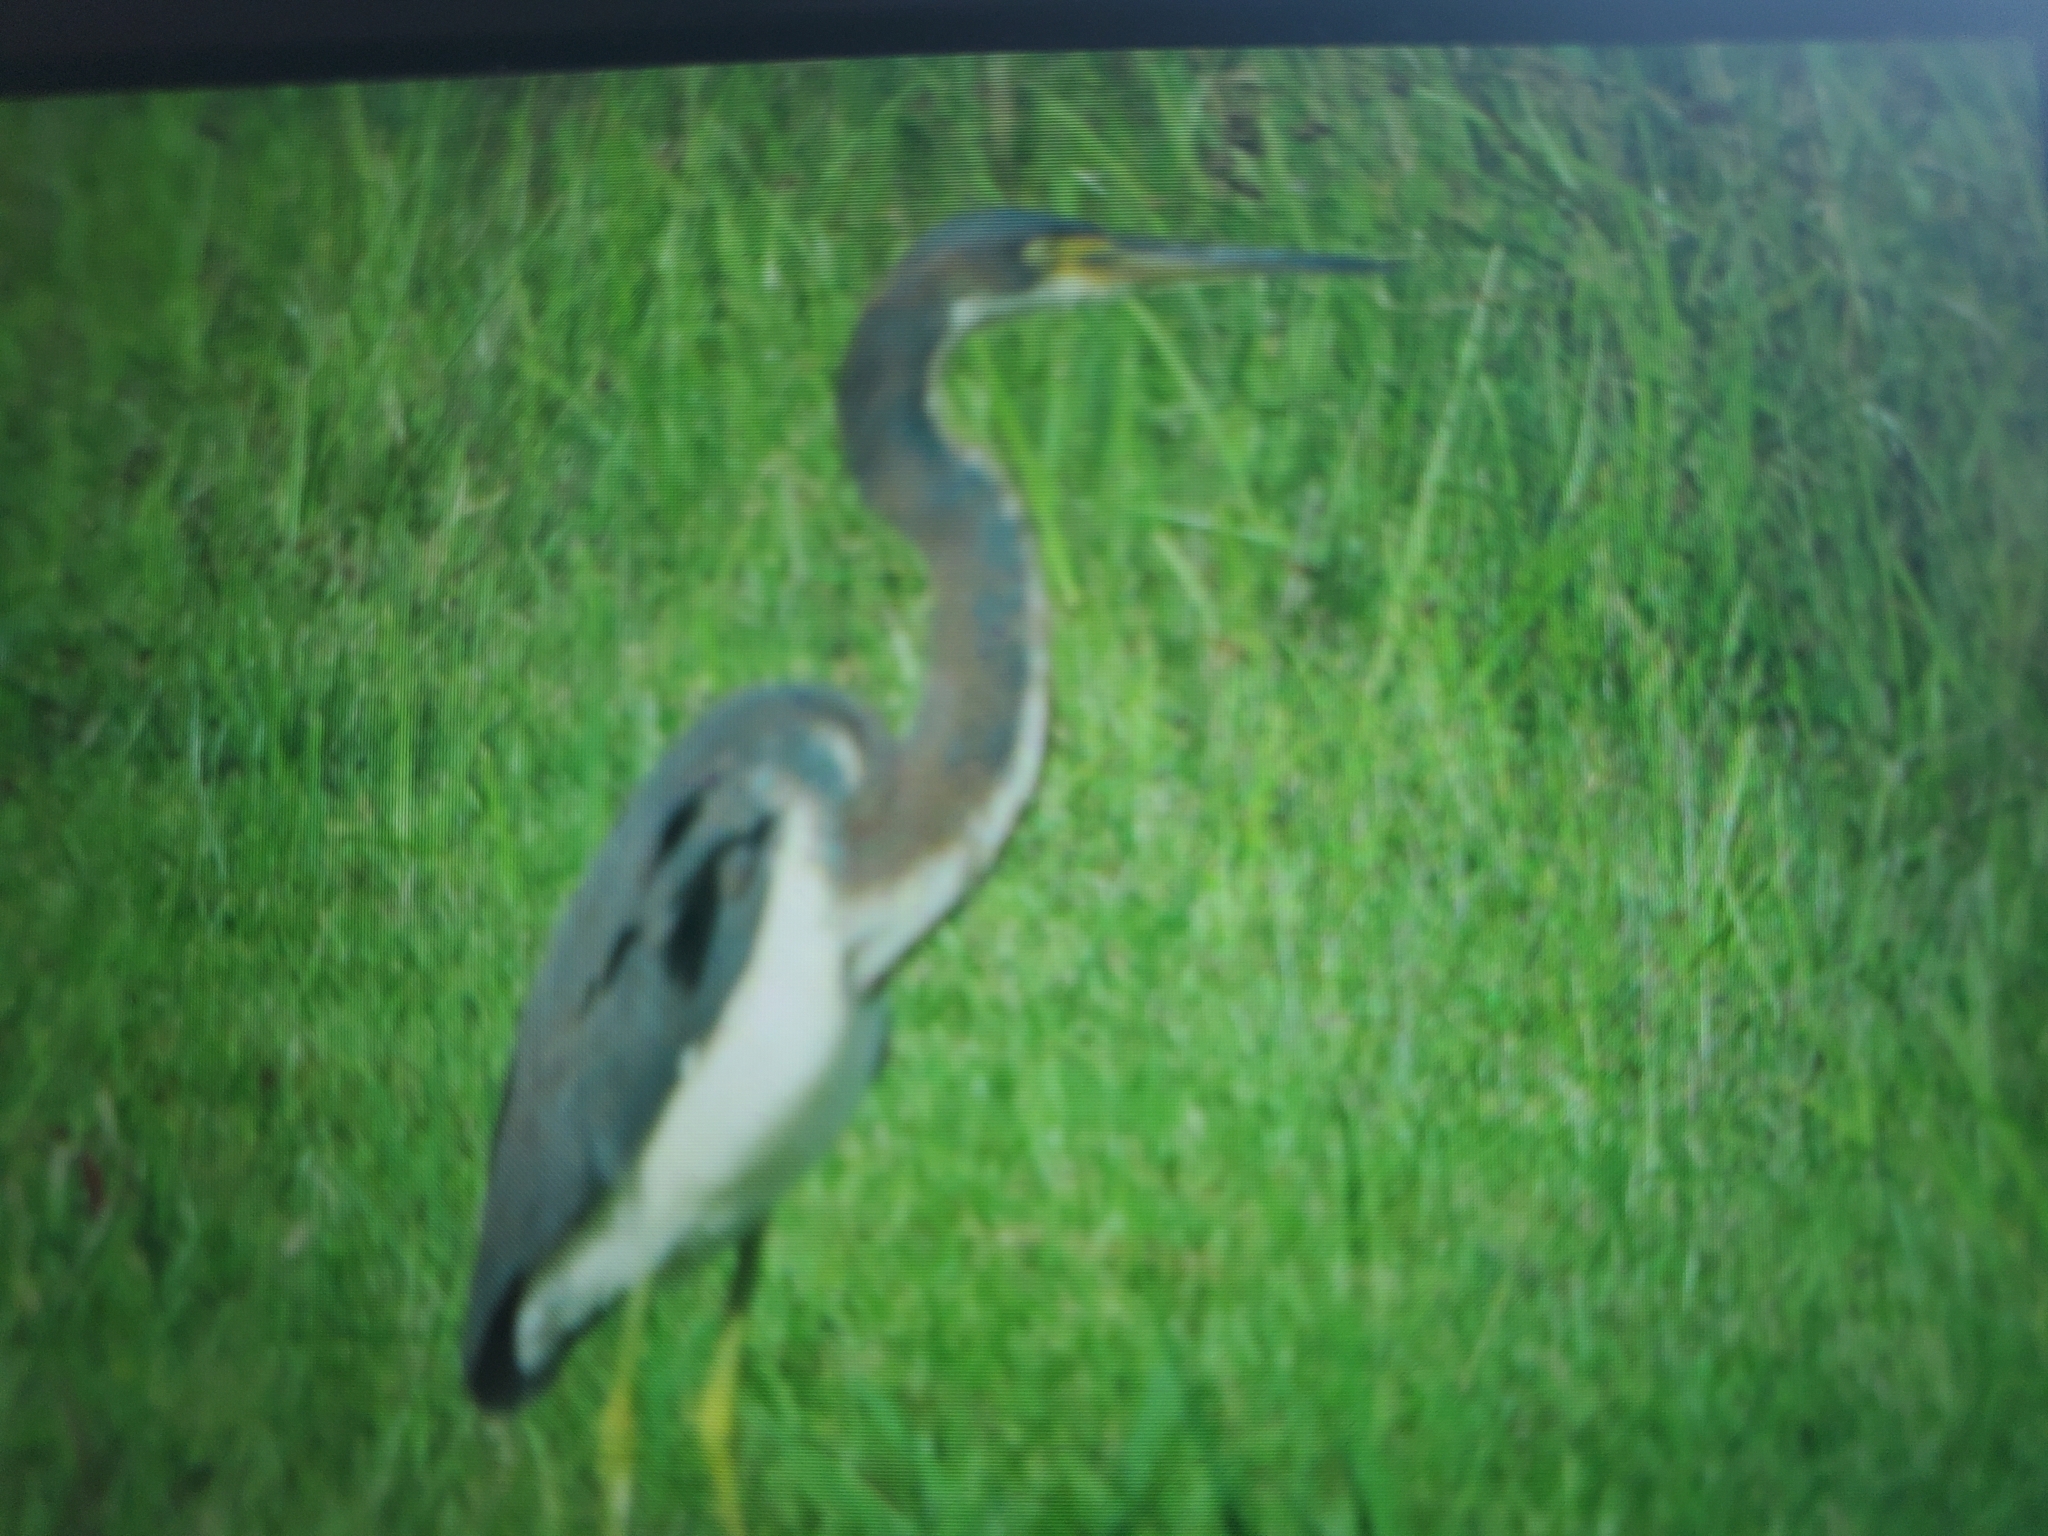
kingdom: Animalia
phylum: Chordata
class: Aves
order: Pelecaniformes
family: Ardeidae
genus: Egretta
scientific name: Egretta tricolor
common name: Tricolored heron
